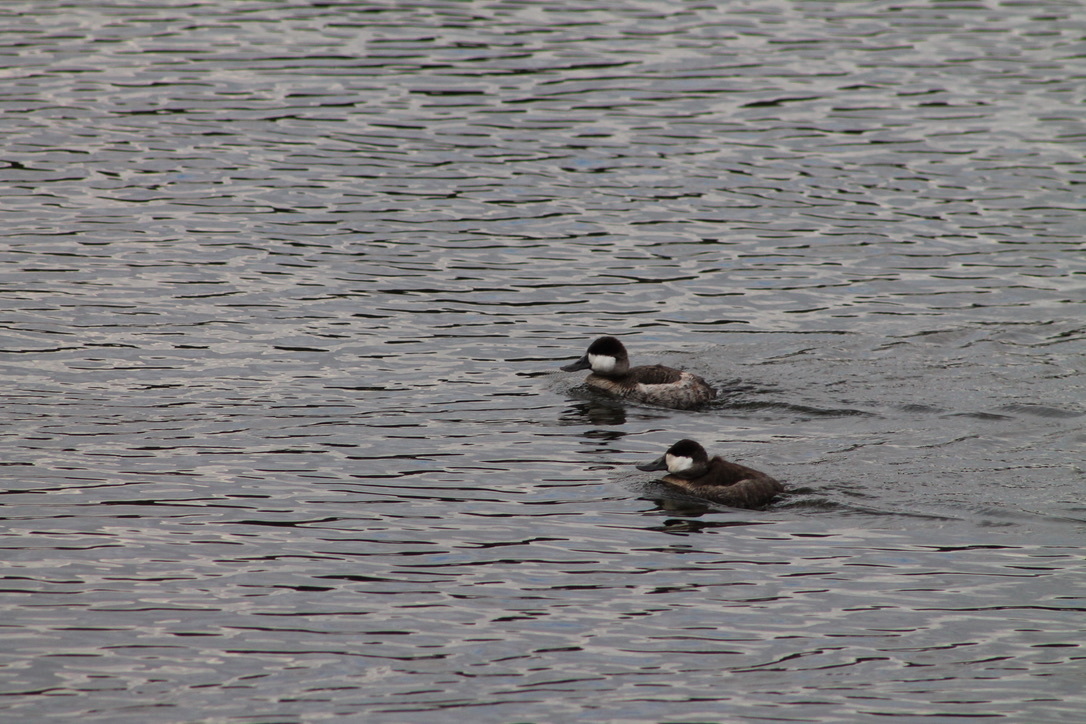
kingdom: Animalia
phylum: Chordata
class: Aves
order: Anseriformes
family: Anatidae
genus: Oxyura
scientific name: Oxyura jamaicensis
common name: Ruddy duck
